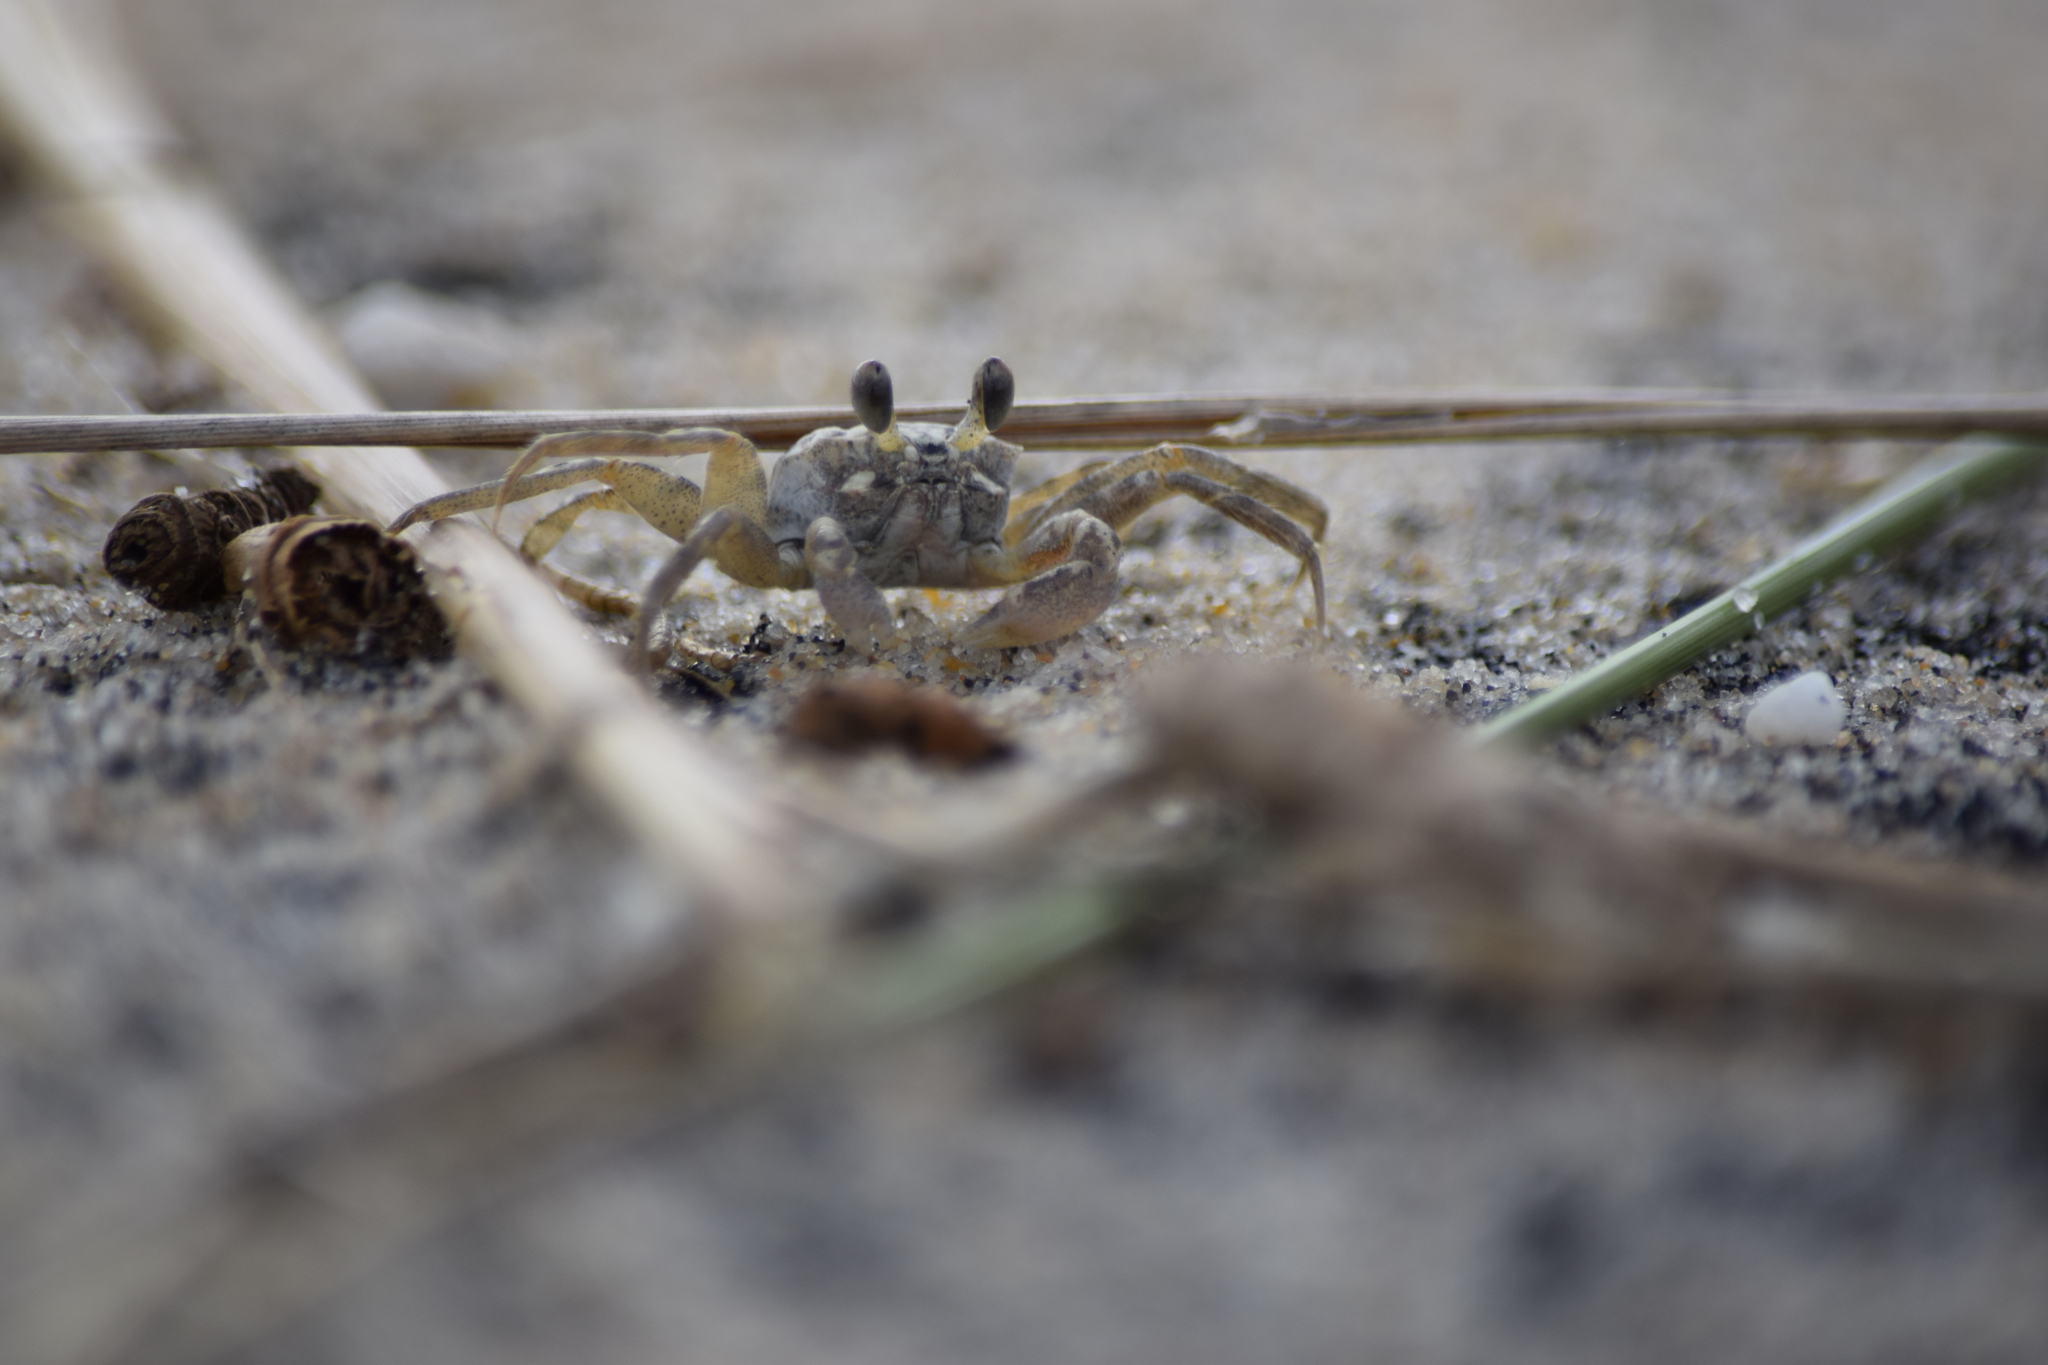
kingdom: Animalia
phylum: Arthropoda
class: Malacostraca
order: Decapoda
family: Ocypodidae
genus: Ocypode
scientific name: Ocypode quadrata
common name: Ghost crab
